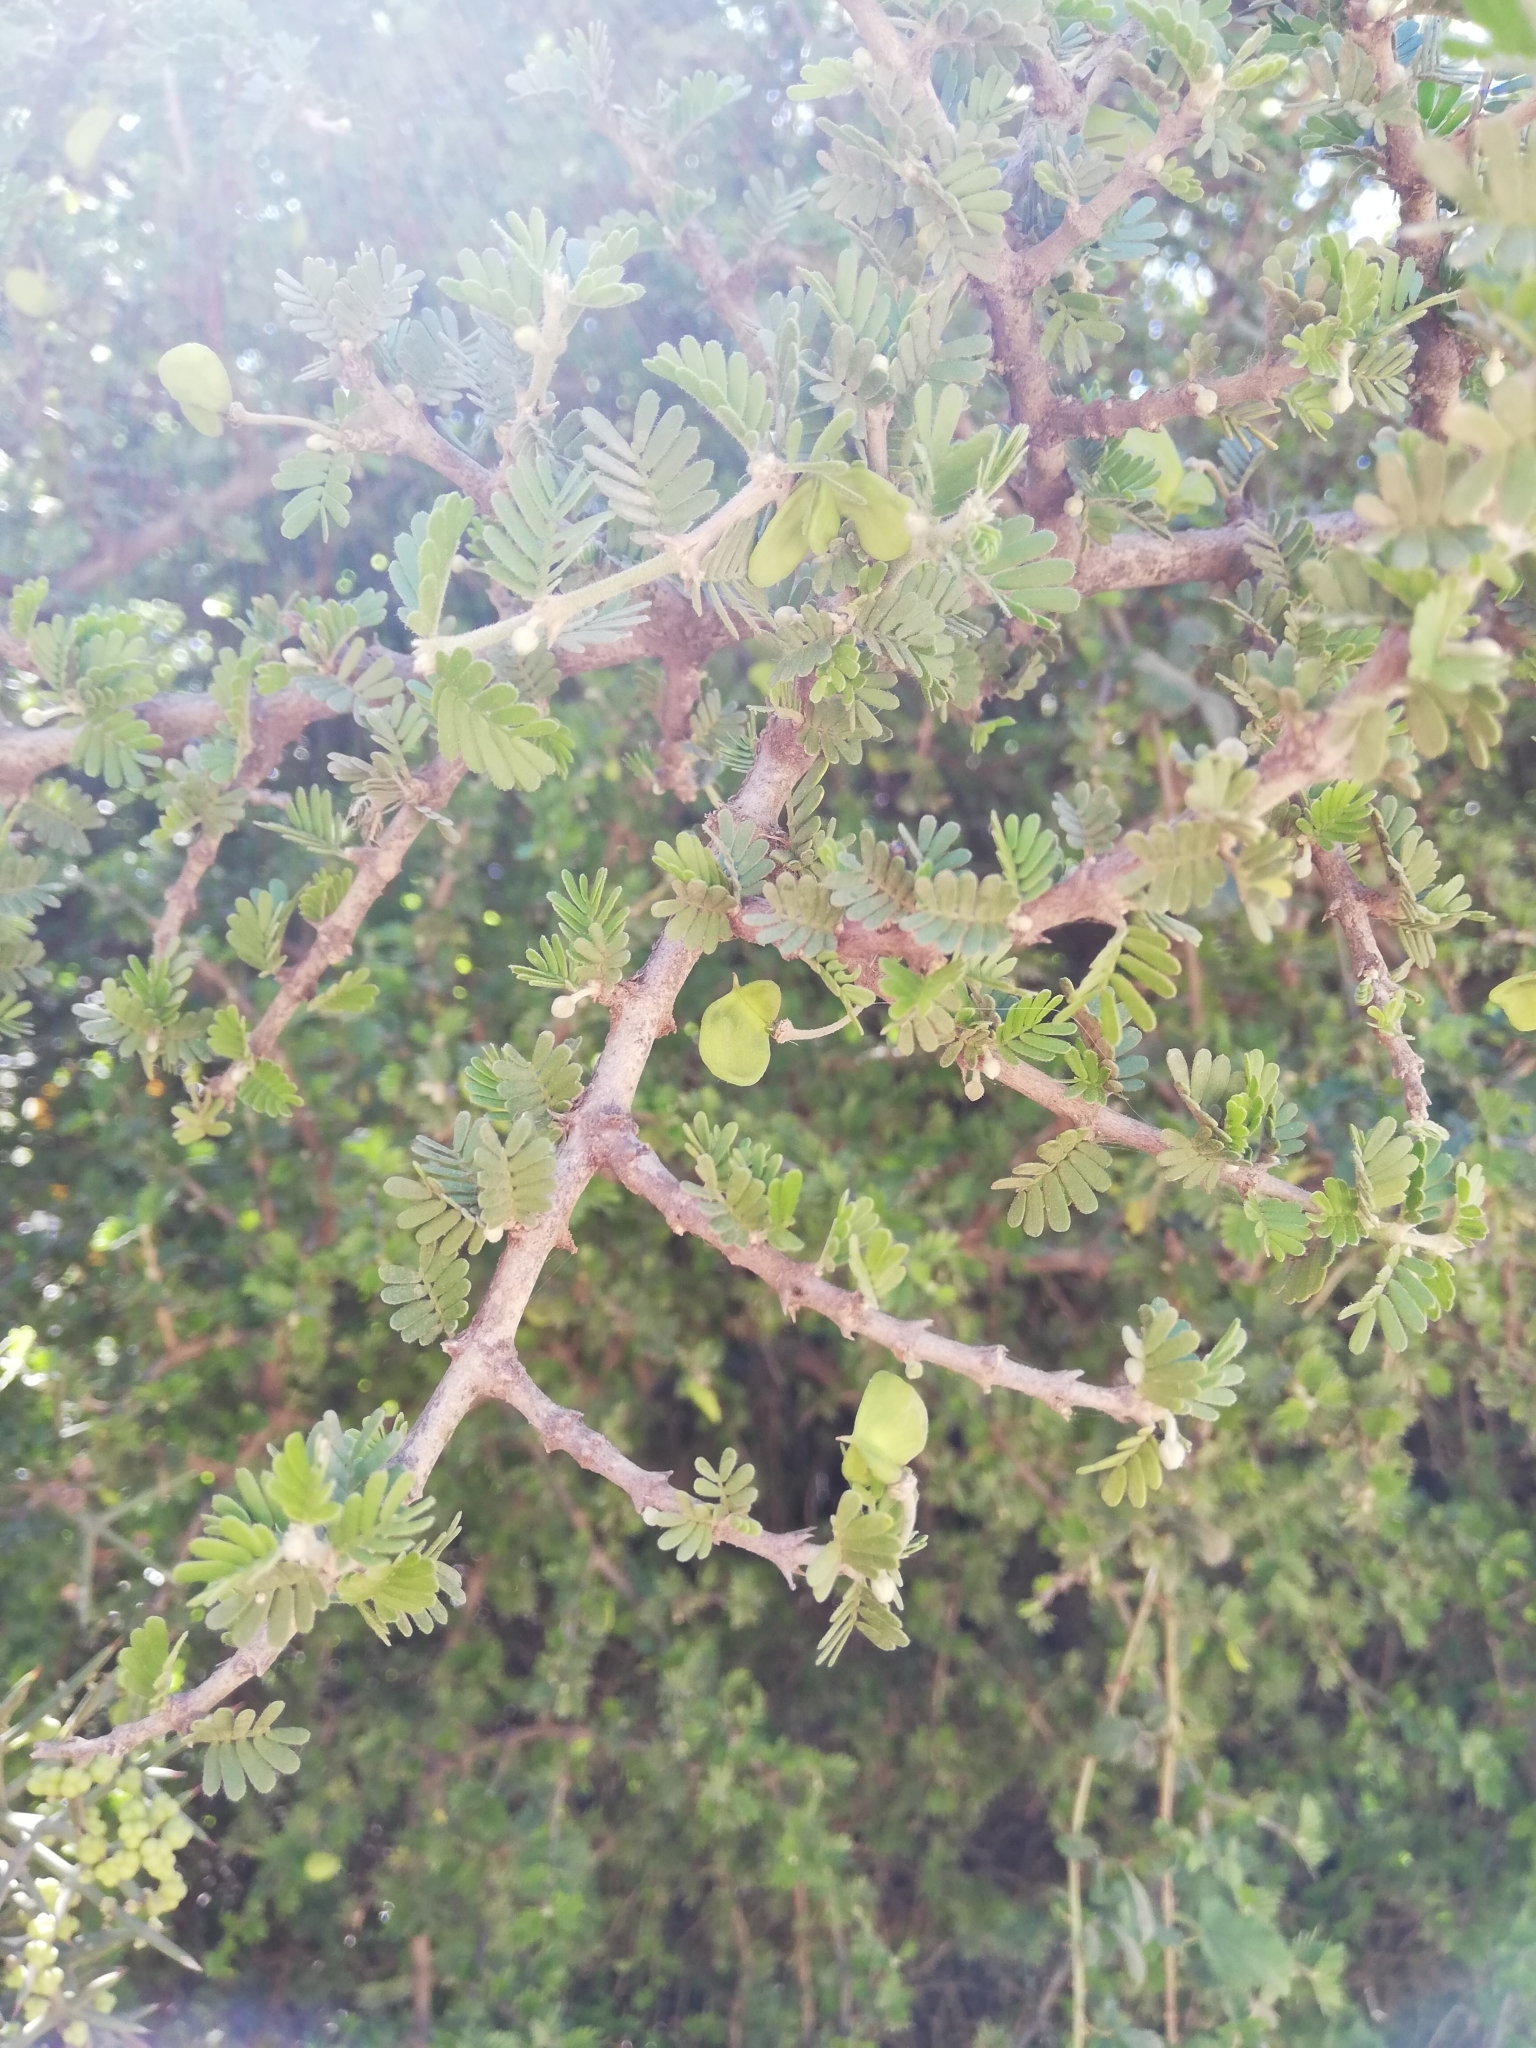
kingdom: Plantae
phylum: Tracheophyta
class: Magnoliopsida
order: Zygophyllales
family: Zygophyllaceae
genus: Porlieria
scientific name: Porlieria chilensis
